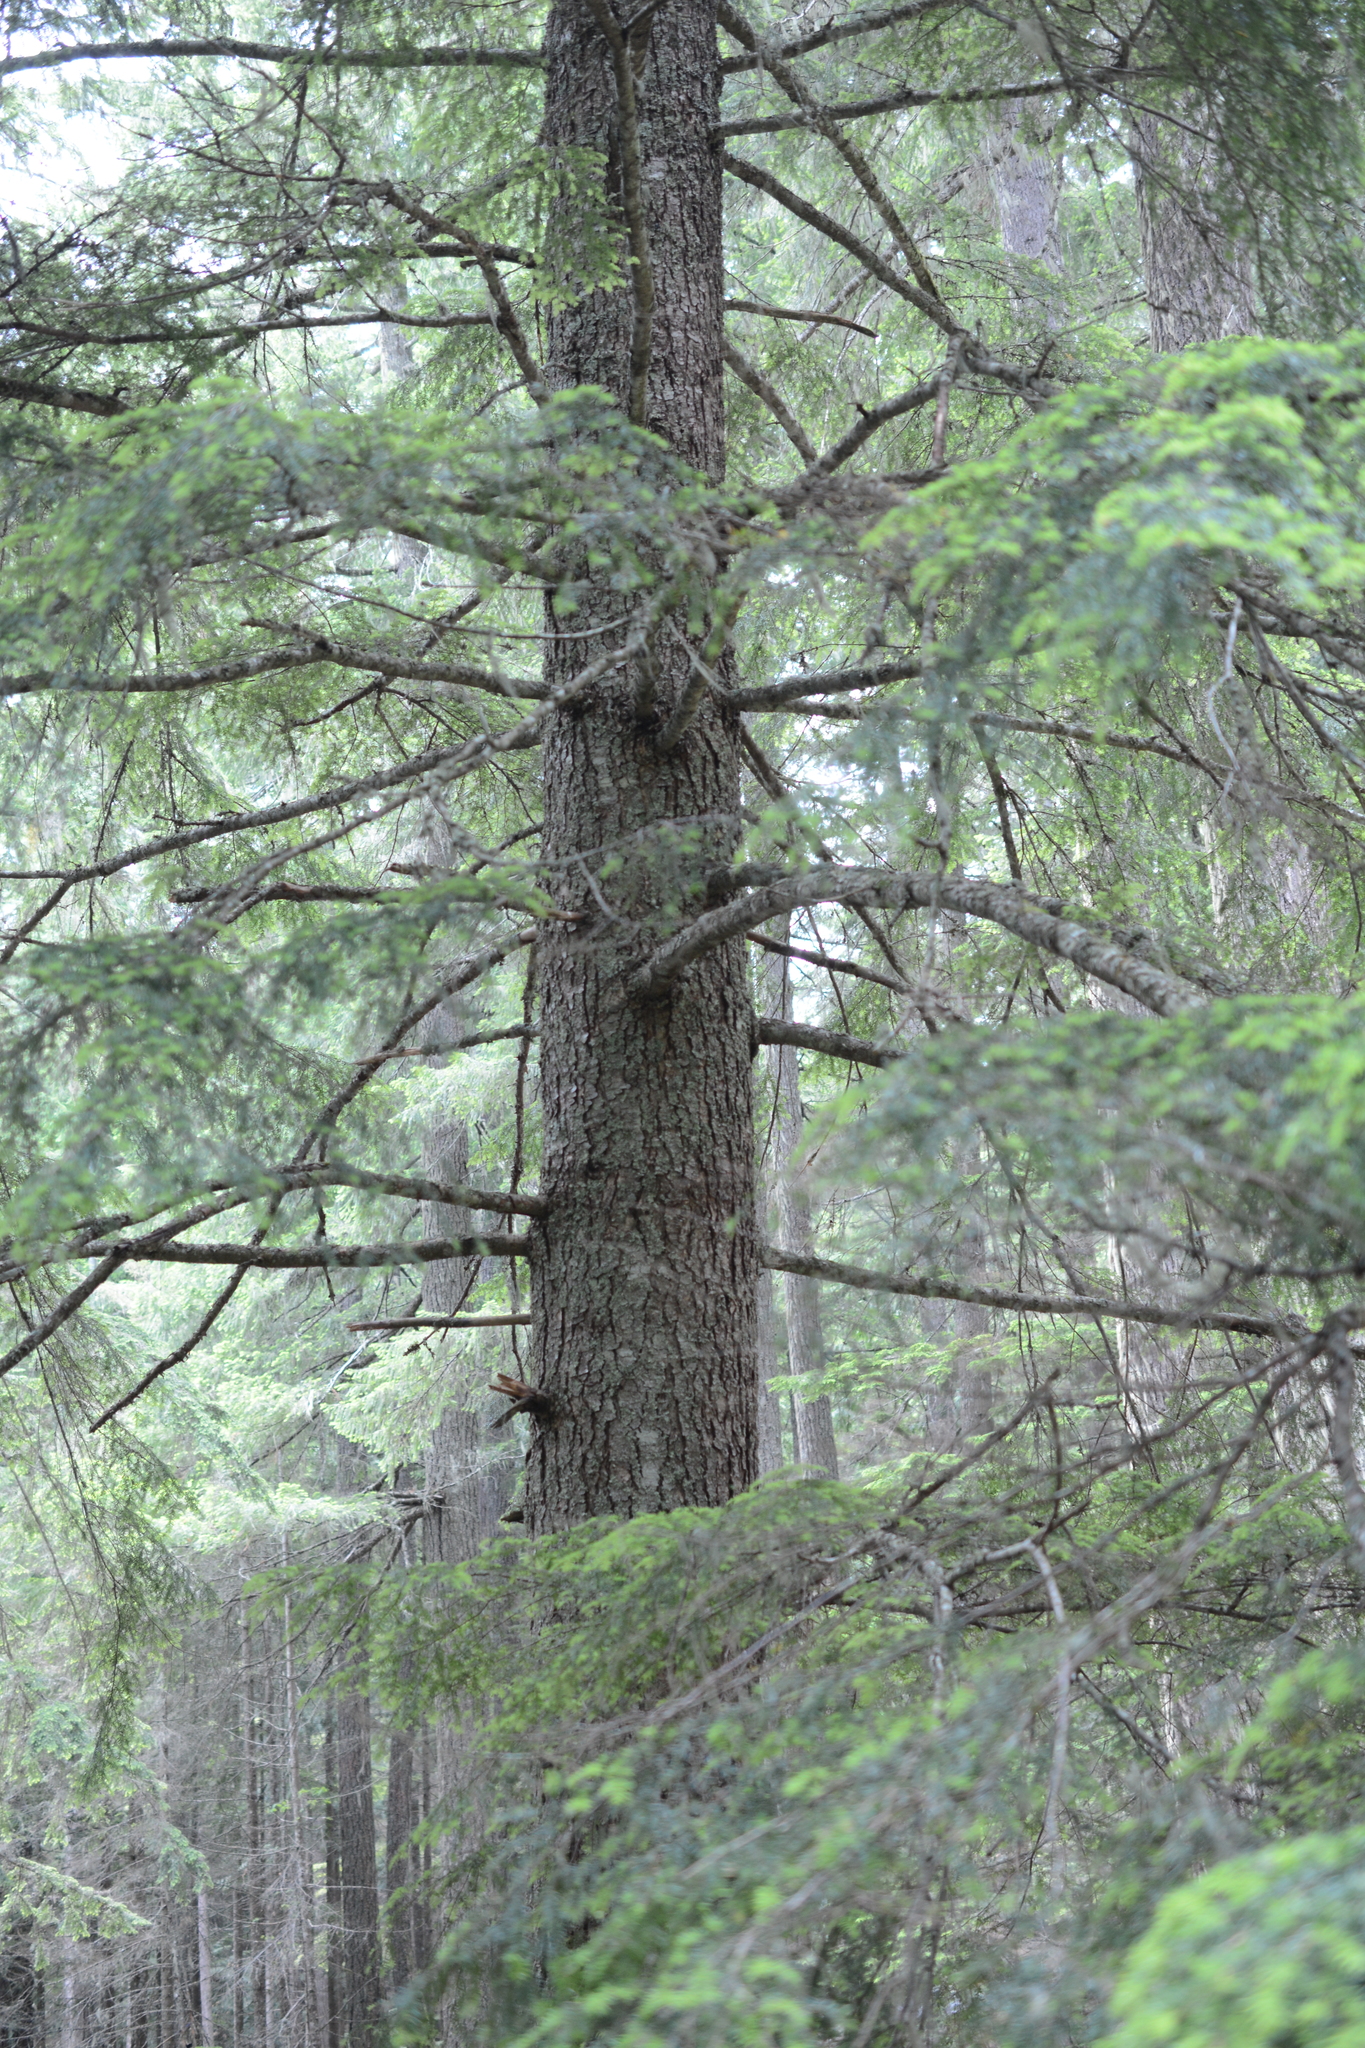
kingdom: Plantae
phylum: Tracheophyta
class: Pinopsida
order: Pinales
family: Pinaceae
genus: Tsuga
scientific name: Tsuga heterophylla
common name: Western hemlock
